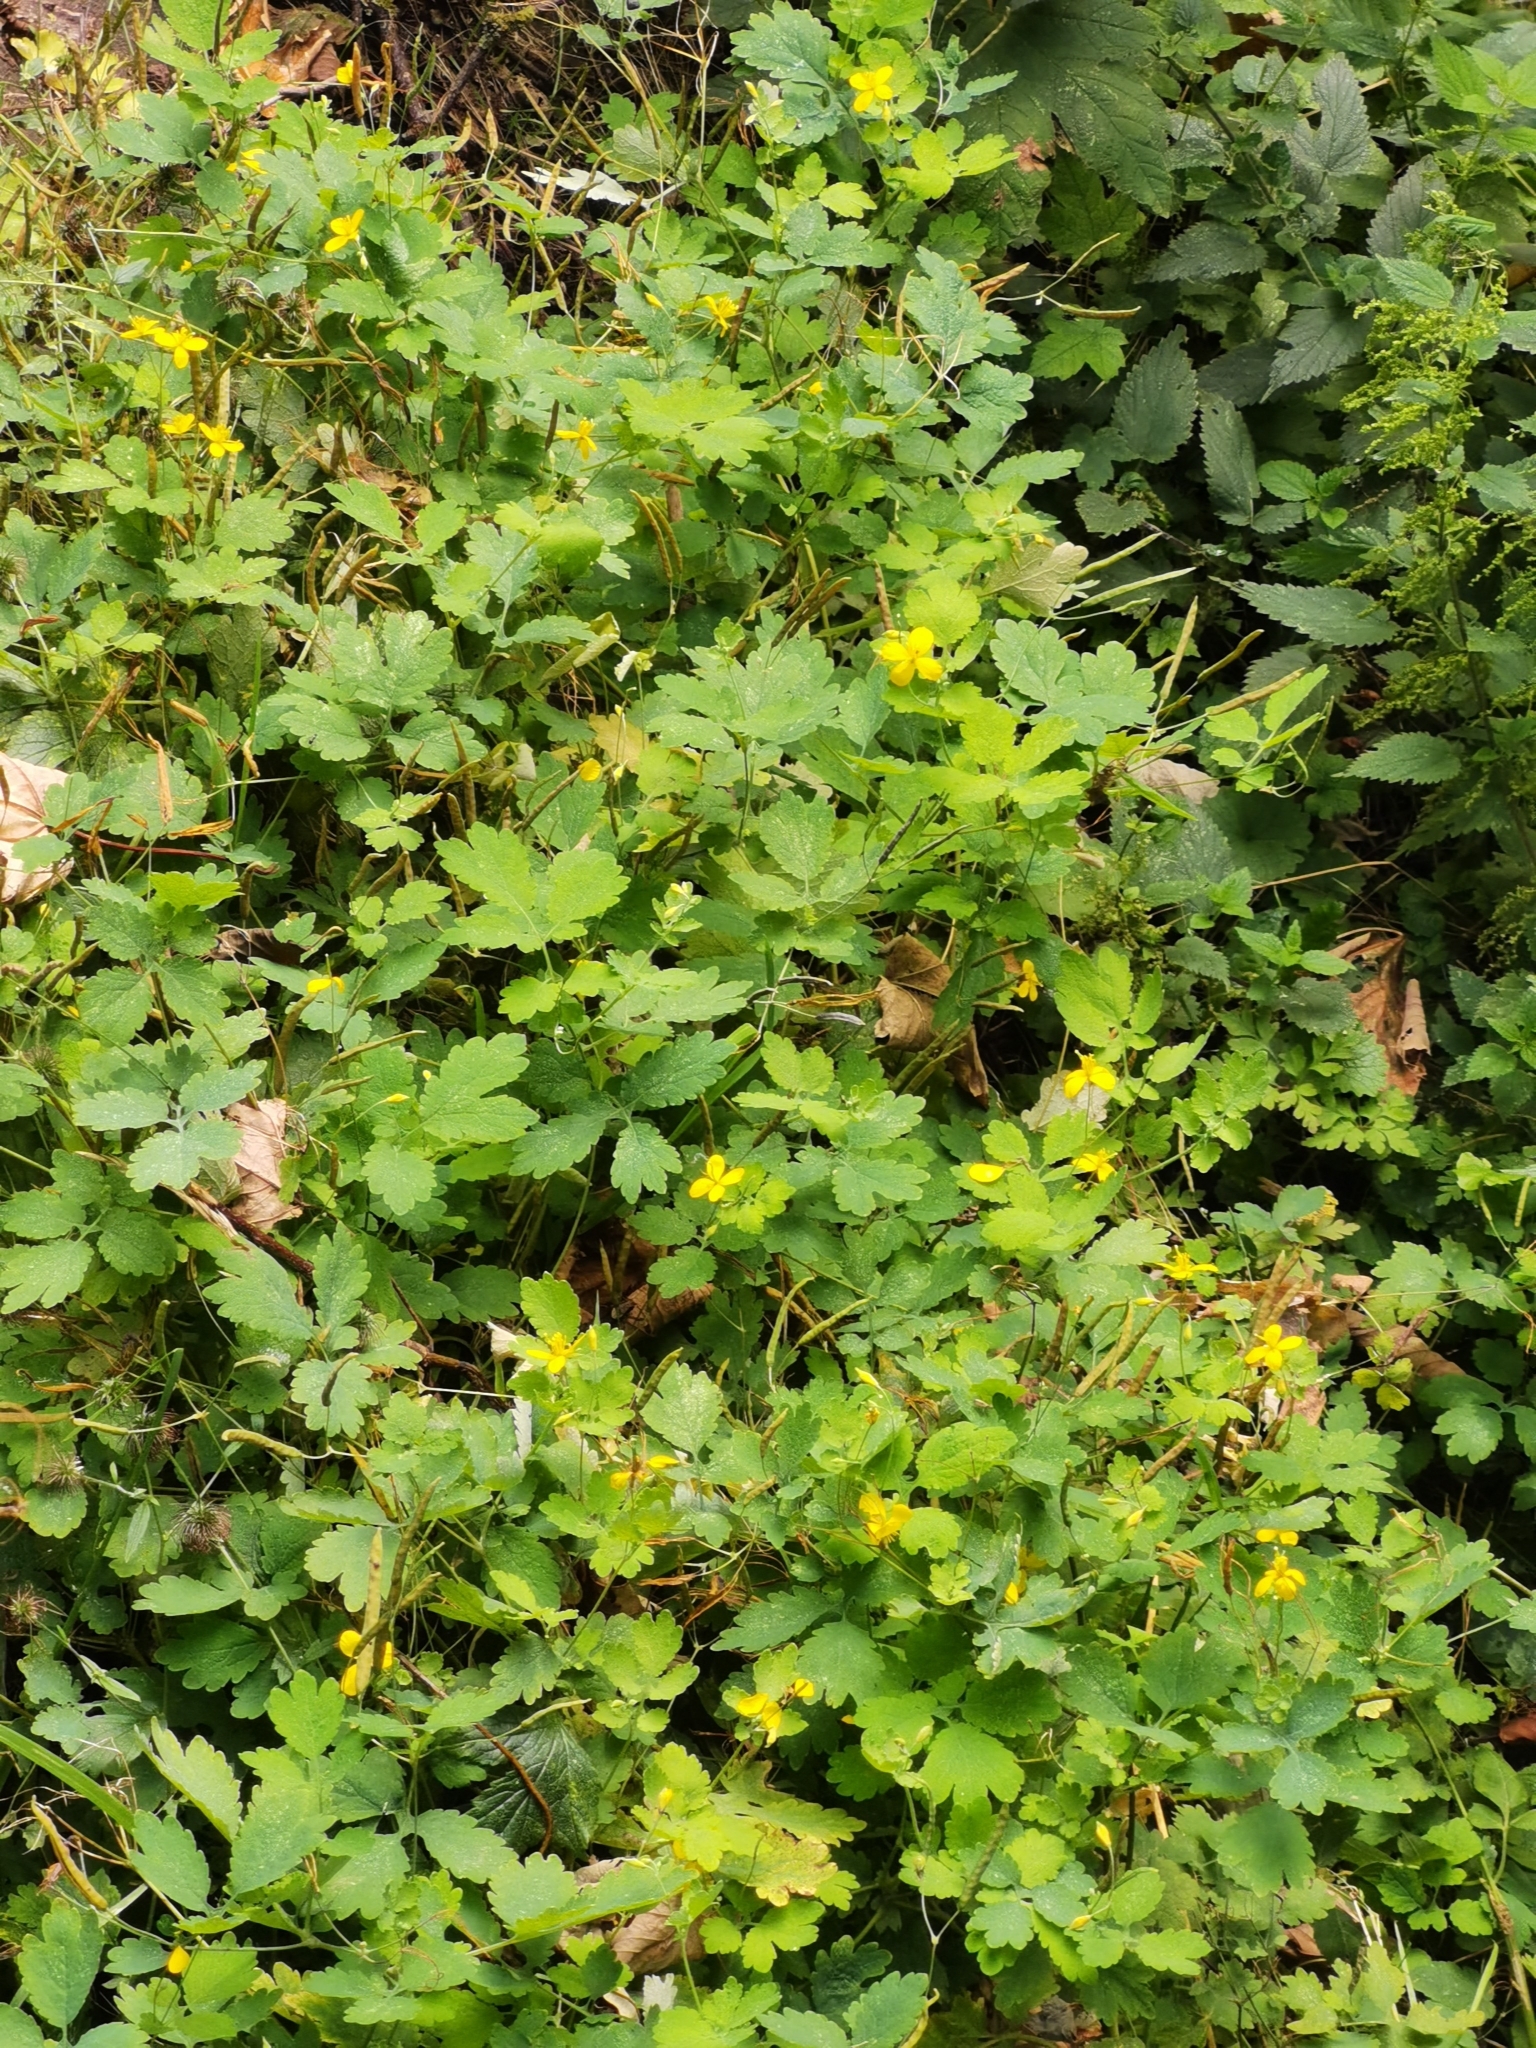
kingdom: Plantae
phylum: Tracheophyta
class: Magnoliopsida
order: Ranunculales
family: Papaveraceae
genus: Chelidonium
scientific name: Chelidonium majus
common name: Greater celandine
